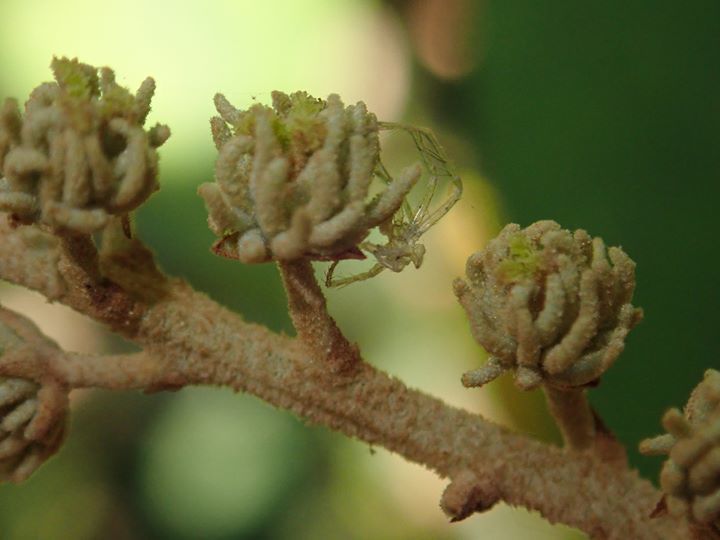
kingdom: Plantae
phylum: Tracheophyta
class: Magnoliopsida
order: Malpighiales
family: Euphorbiaceae
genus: Mallotus
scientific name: Mallotus paniculatus
